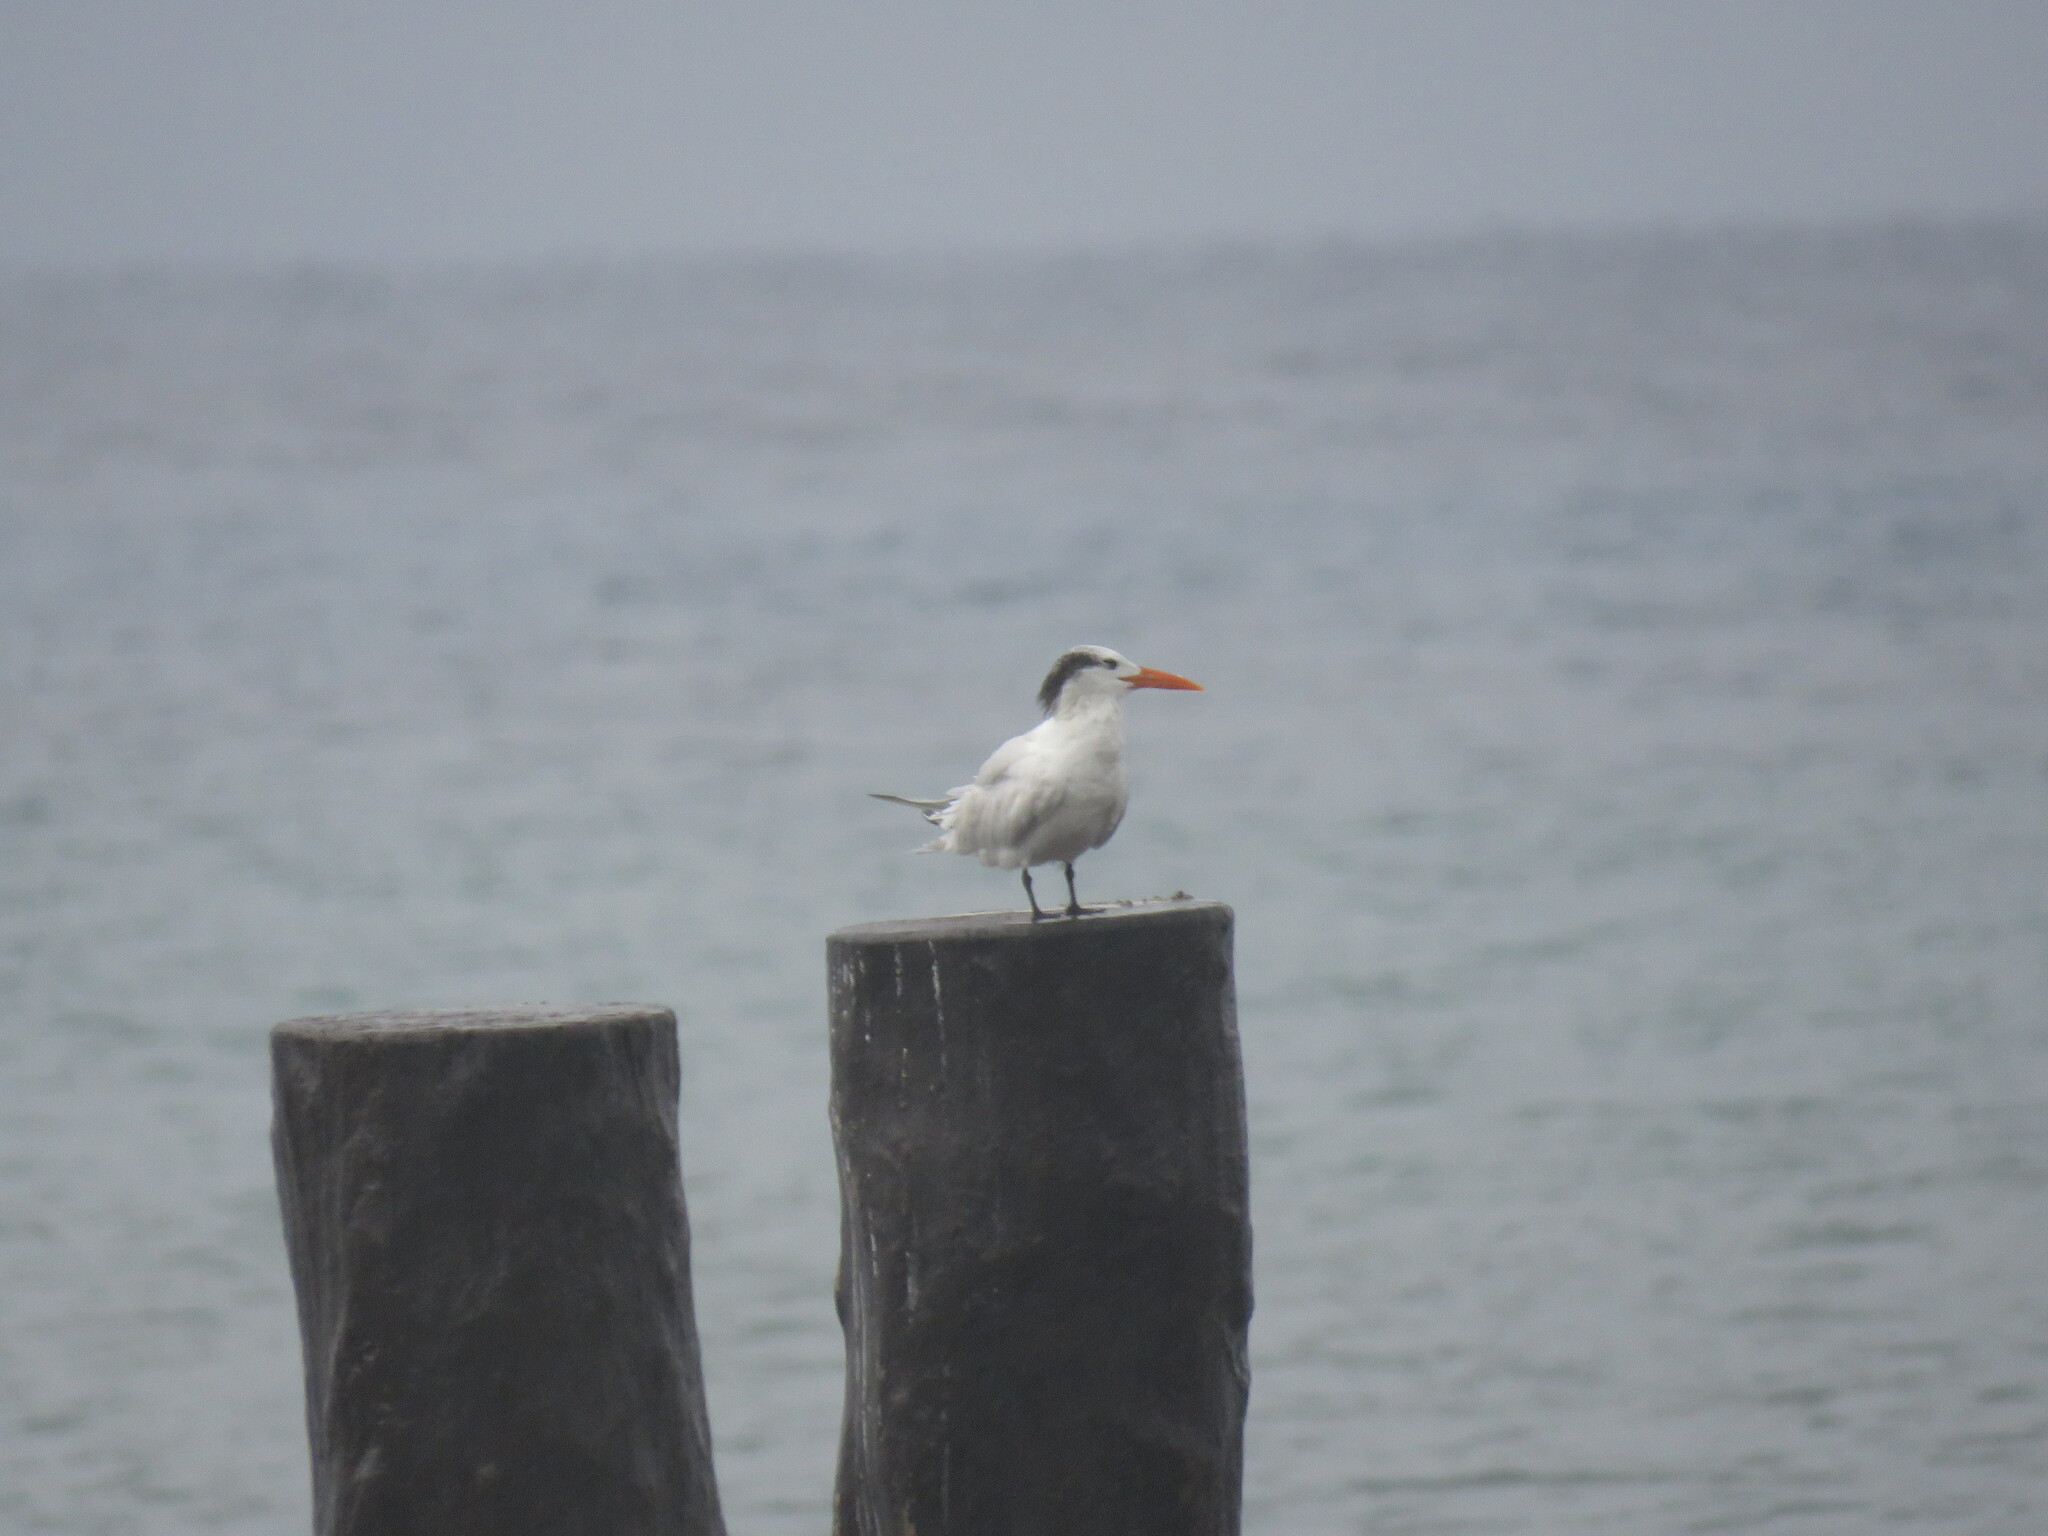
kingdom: Animalia
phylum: Chordata
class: Aves
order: Charadriiformes
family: Laridae
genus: Thalasseus
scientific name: Thalasseus maximus
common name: Royal tern
